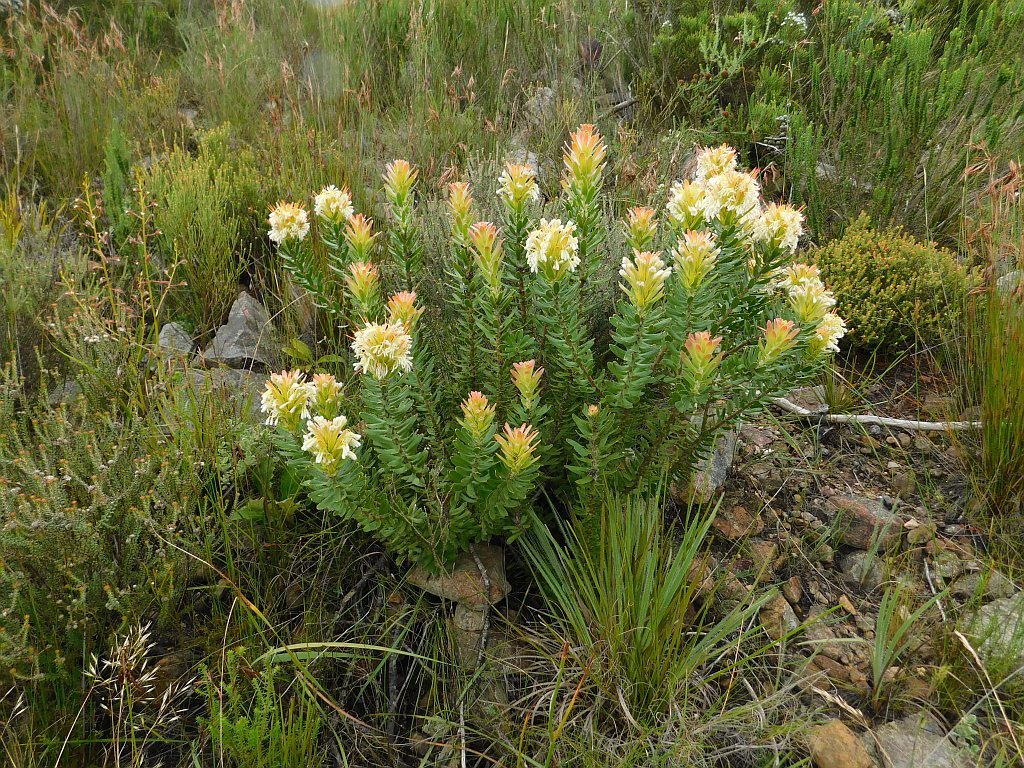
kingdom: Plantae
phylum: Tracheophyta
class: Magnoliopsida
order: Proteales
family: Proteaceae
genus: Mimetes
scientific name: Mimetes cucullatus
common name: Common pagoda
